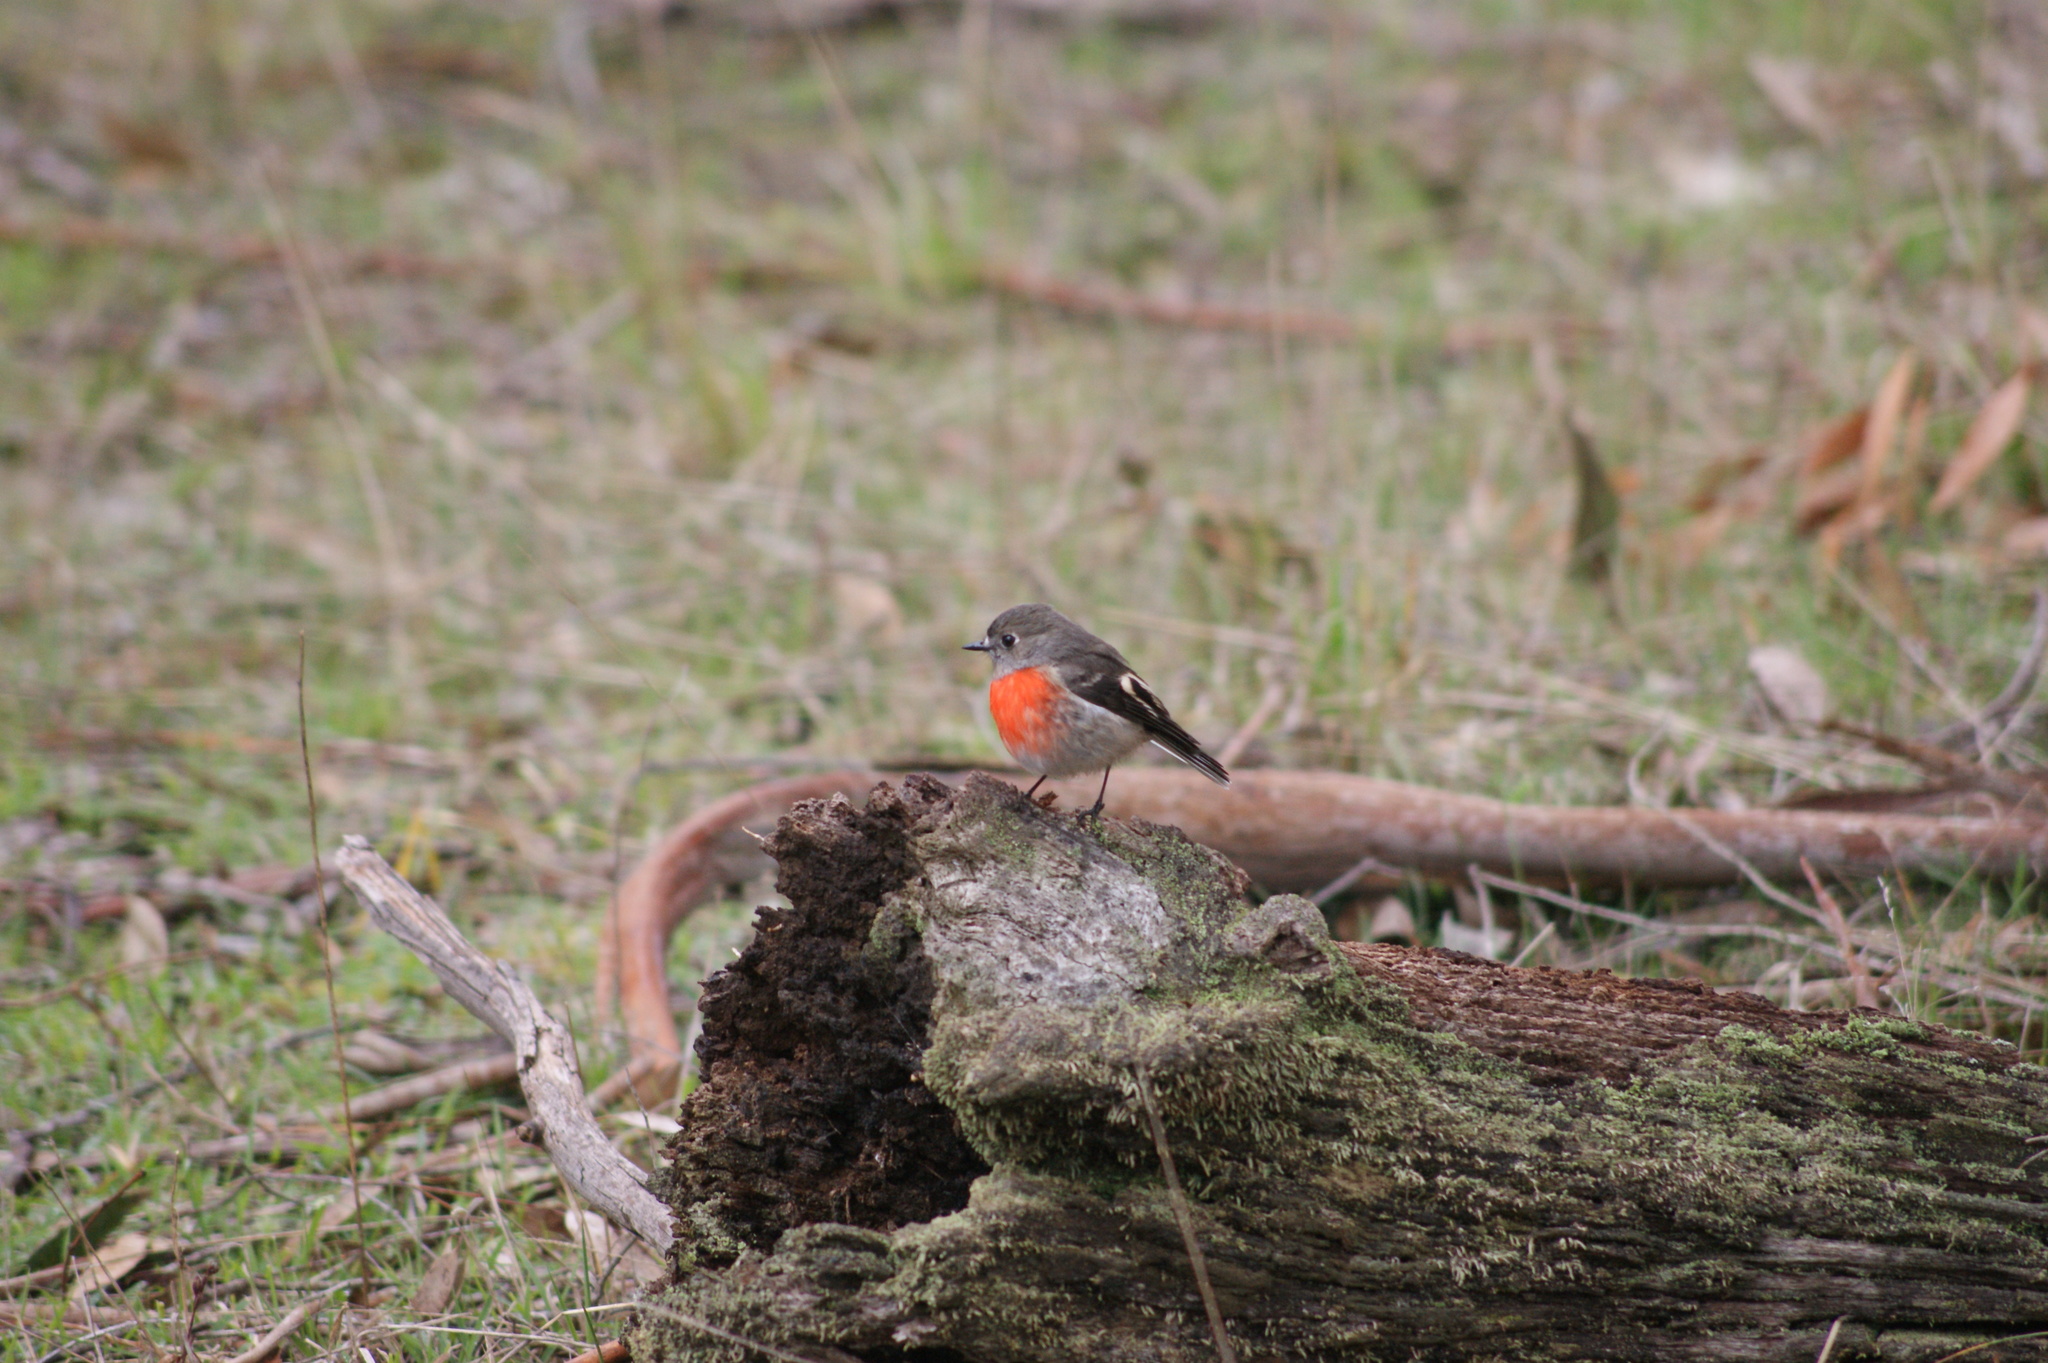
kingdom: Animalia
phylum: Chordata
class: Aves
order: Passeriformes
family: Petroicidae
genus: Petroica
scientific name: Petroica boodang
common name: Scarlet robin
